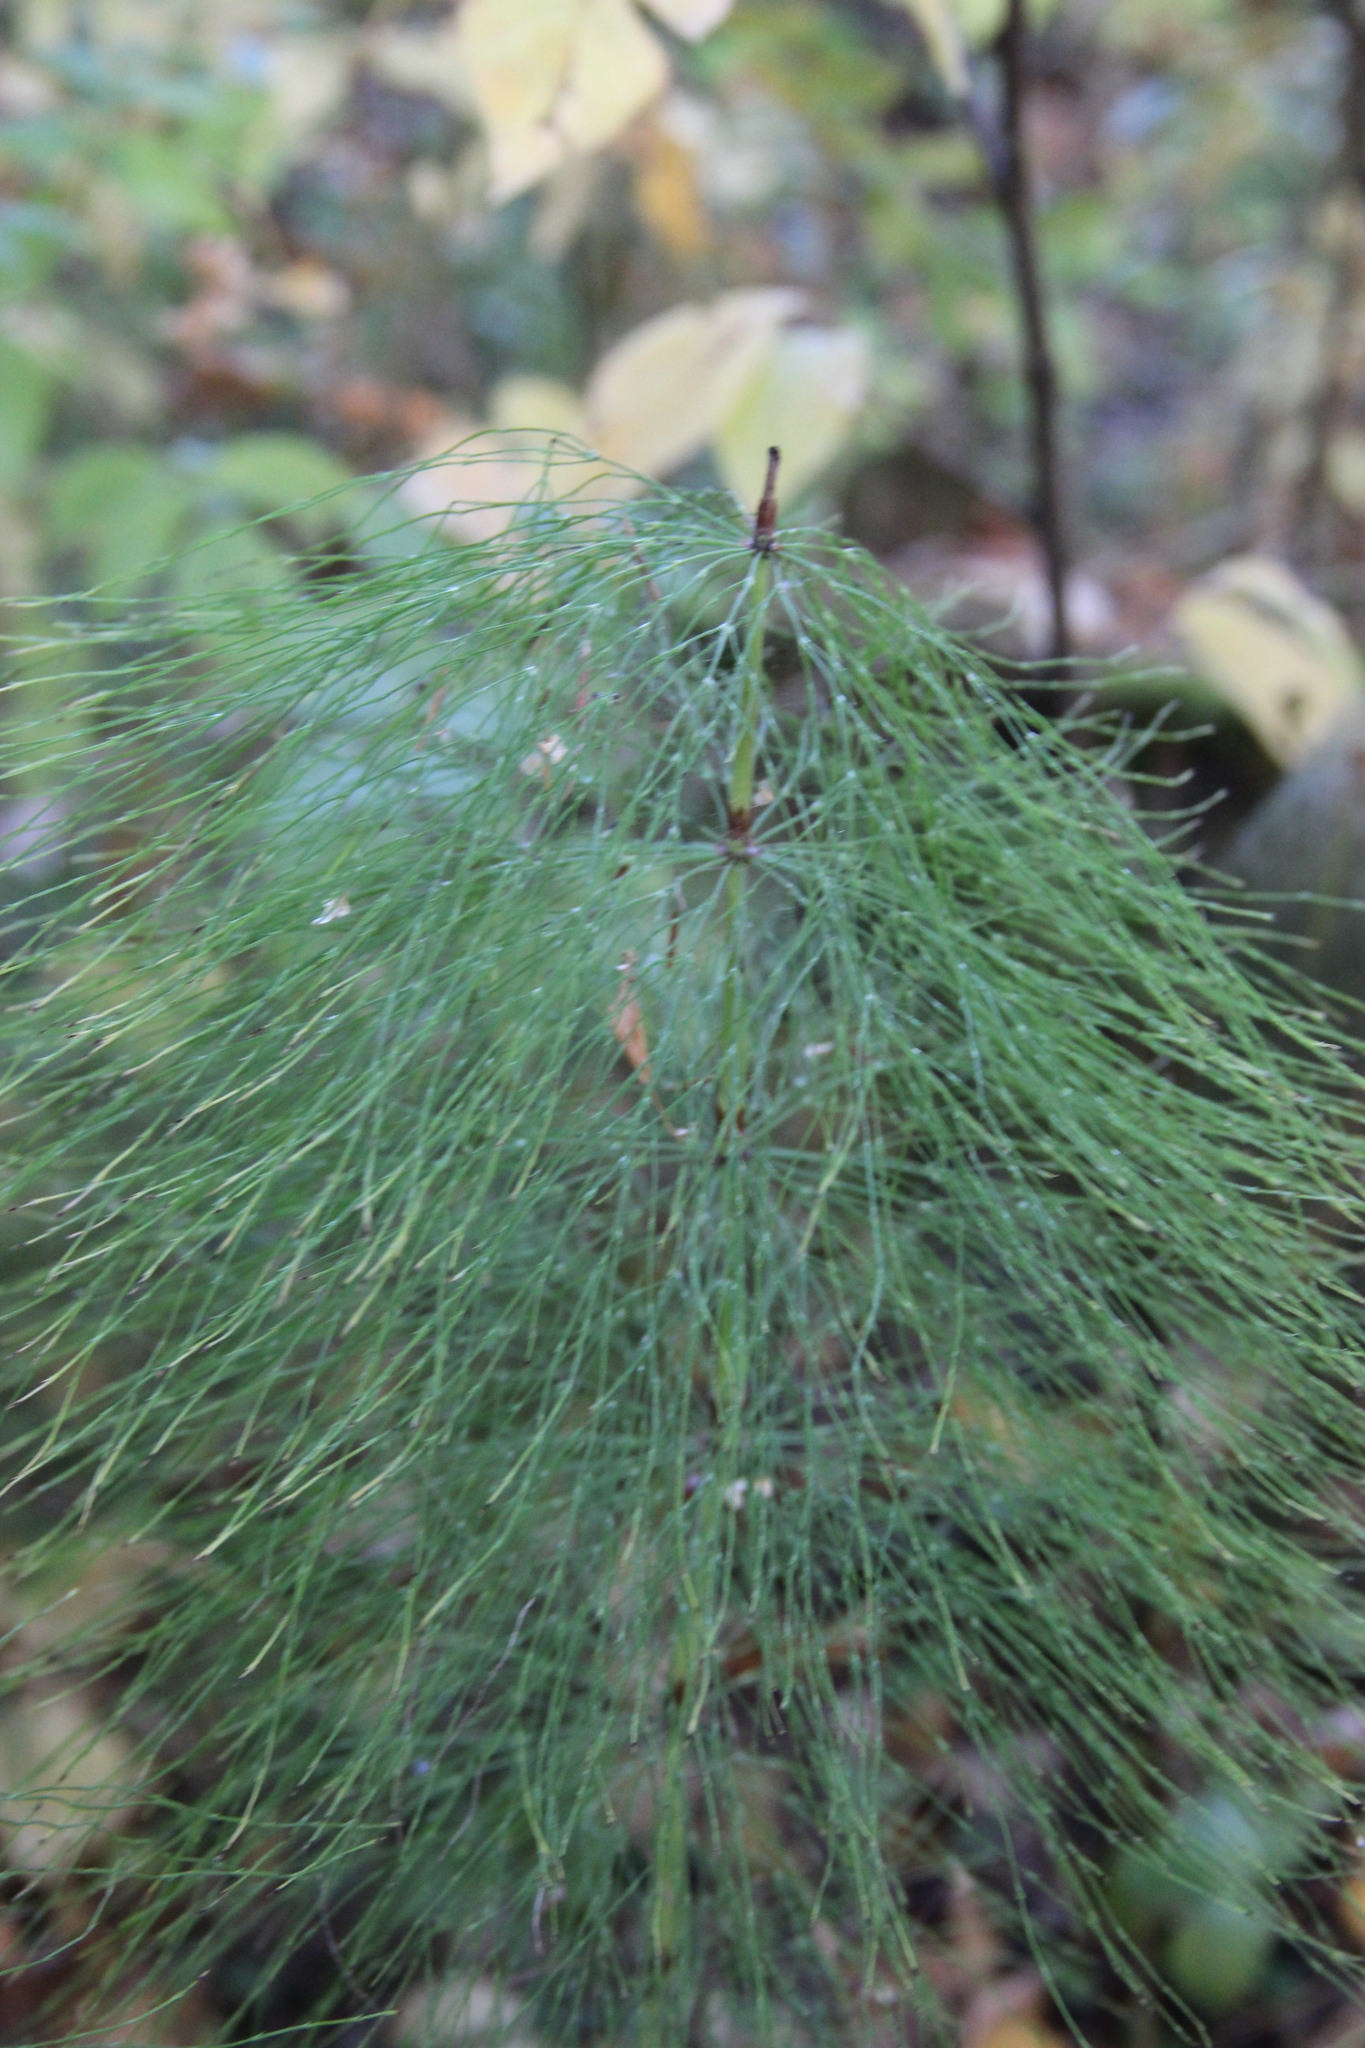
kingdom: Plantae
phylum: Tracheophyta
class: Polypodiopsida
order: Equisetales
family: Equisetaceae
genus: Equisetum
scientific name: Equisetum sylvaticum
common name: Wood horsetail
